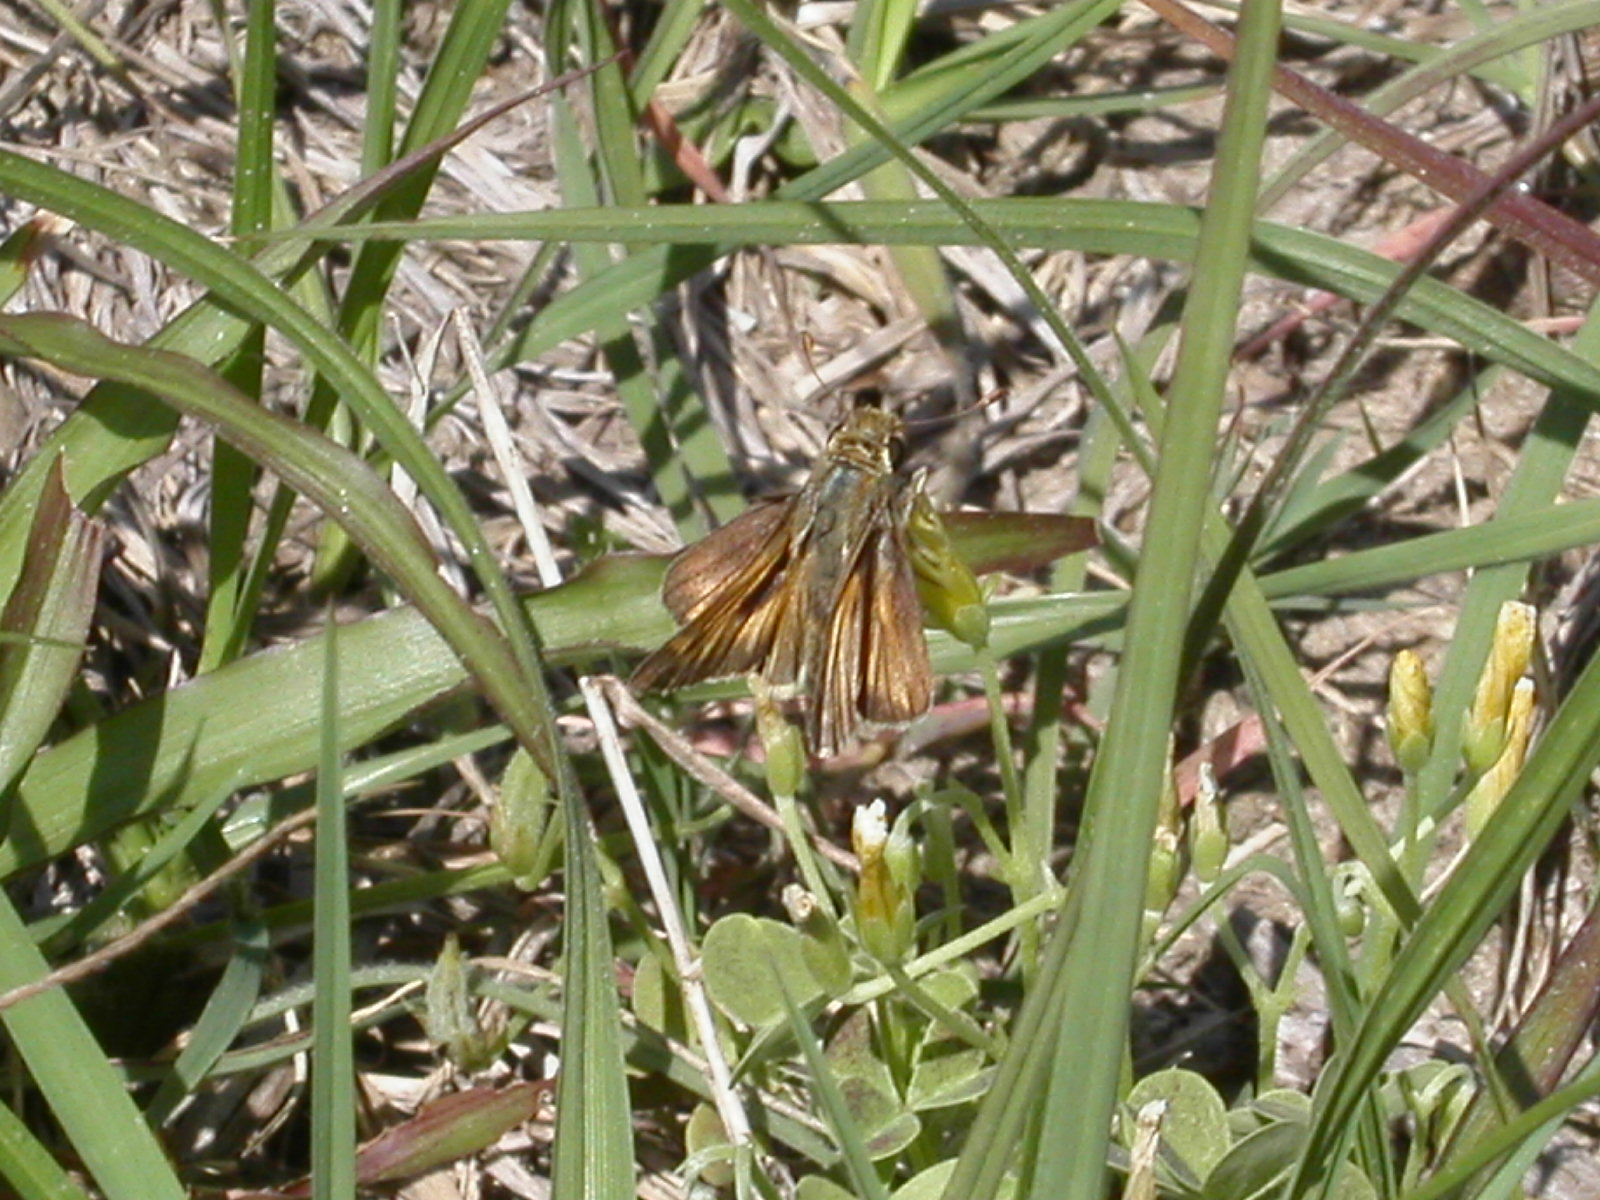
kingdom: Animalia
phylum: Arthropoda
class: Insecta
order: Lepidoptera
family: Hesperiidae
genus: Atalopedes
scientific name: Atalopedes
